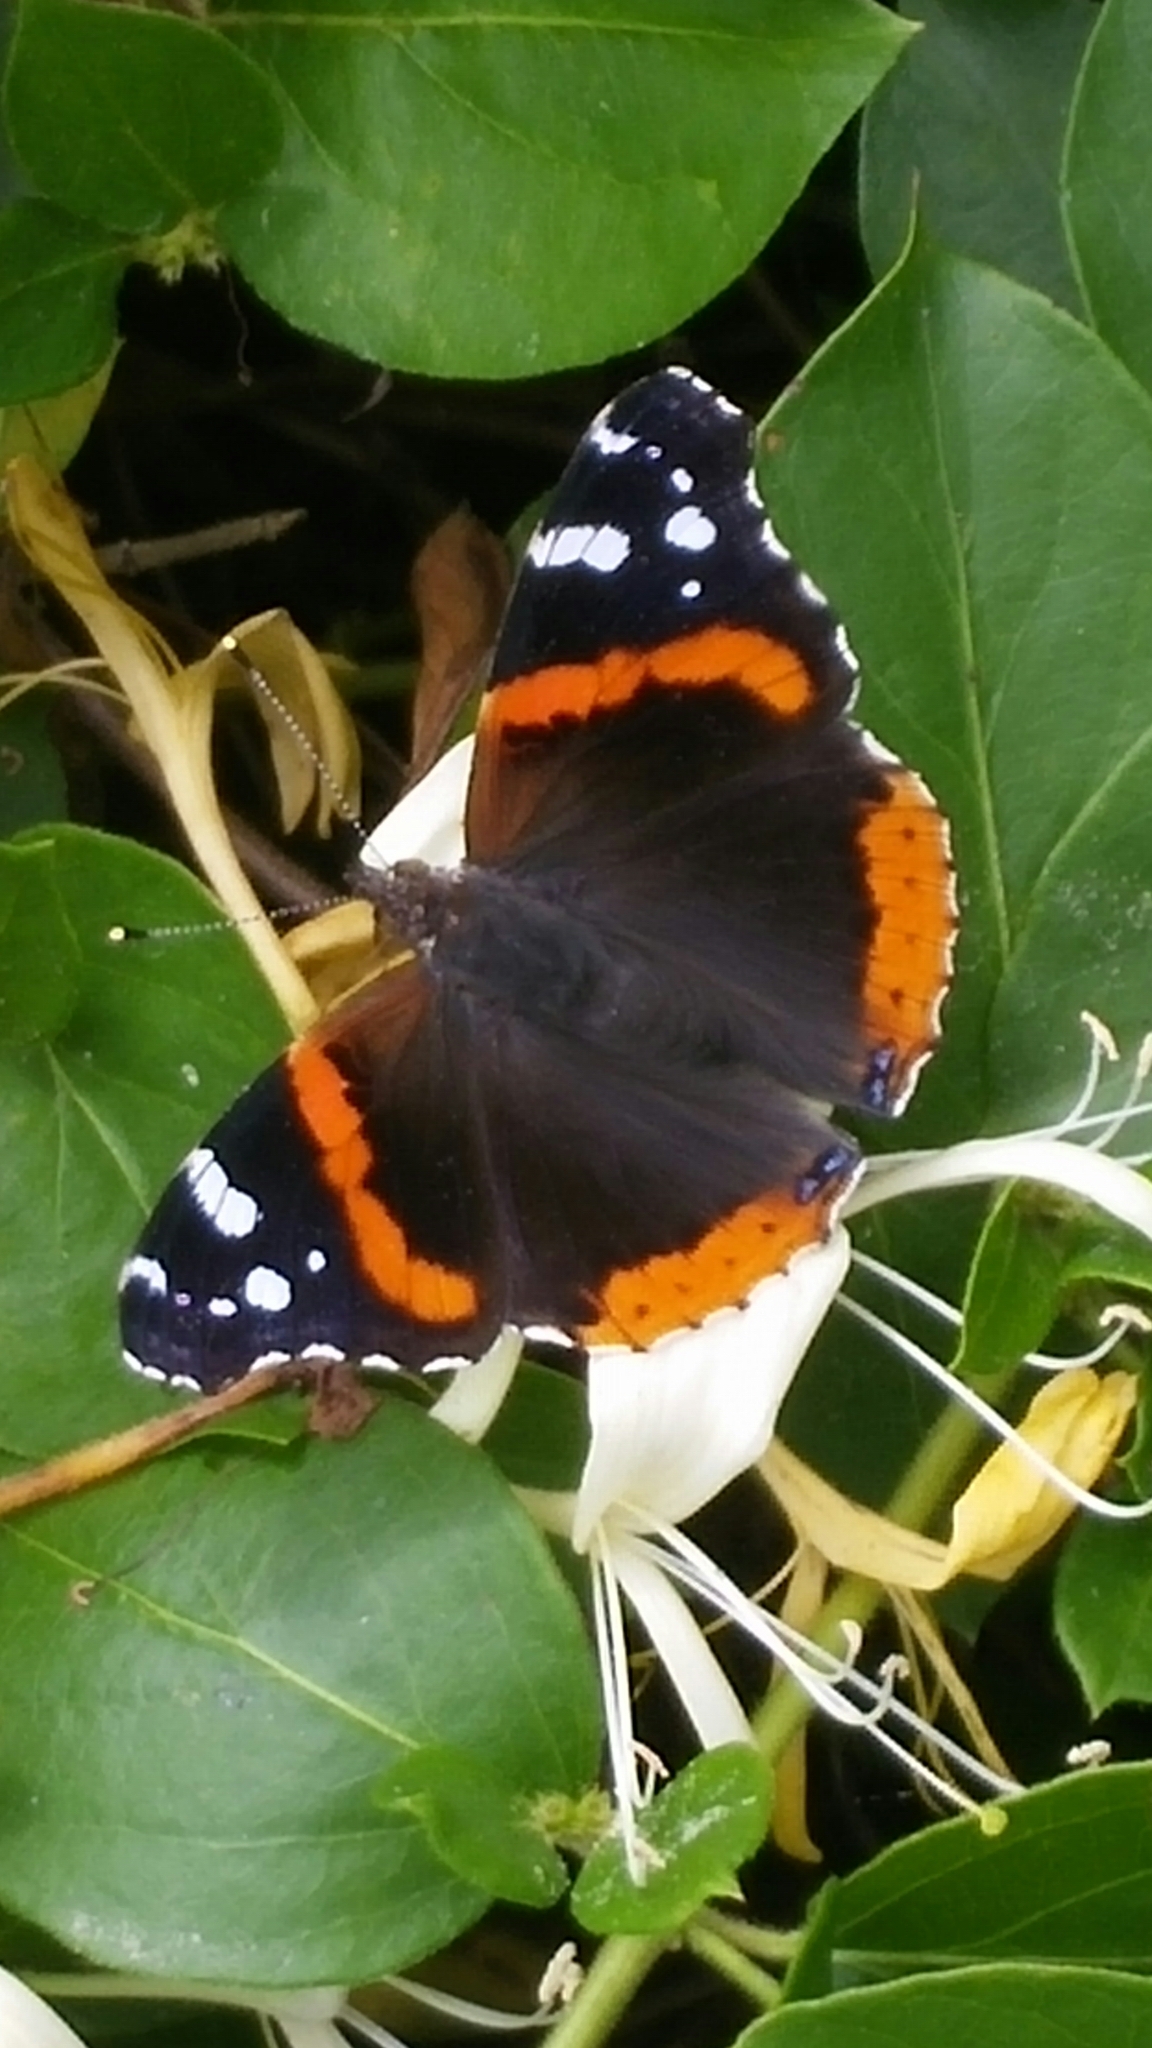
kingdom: Animalia
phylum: Arthropoda
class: Insecta
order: Lepidoptera
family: Nymphalidae
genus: Vanessa
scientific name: Vanessa atalanta
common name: Red admiral
